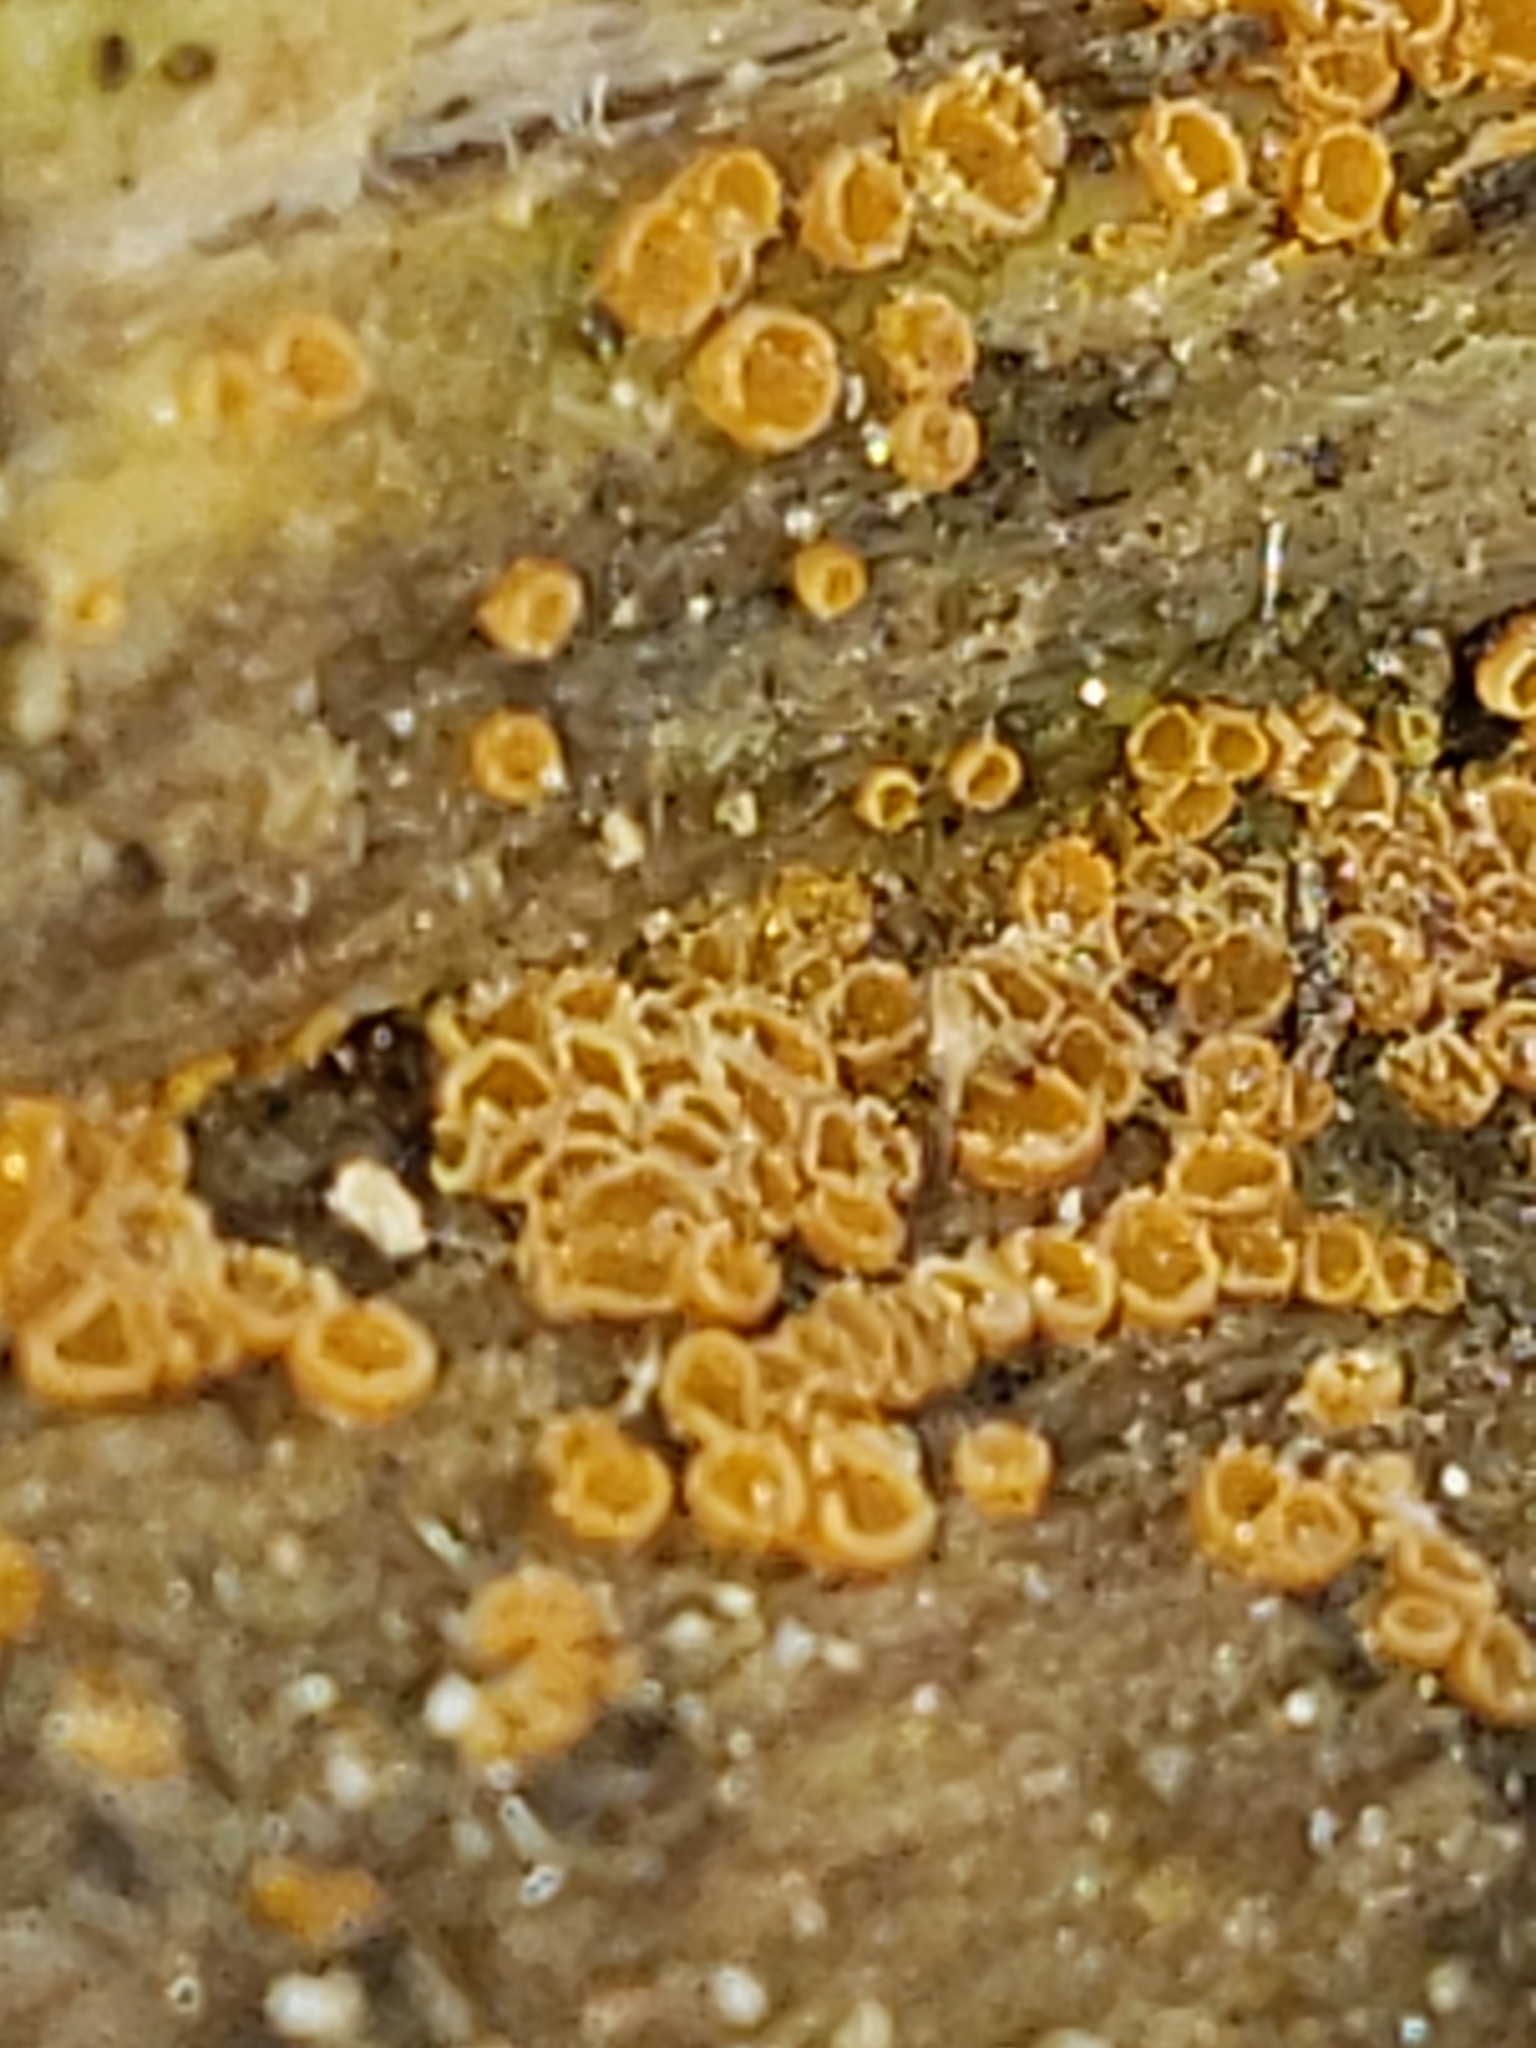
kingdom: Fungi
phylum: Ascomycota
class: Leotiomycetes
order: Helotiales
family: Arachnopezizaceae
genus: Arachnopeziza
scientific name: Arachnopeziza trabinelloides
